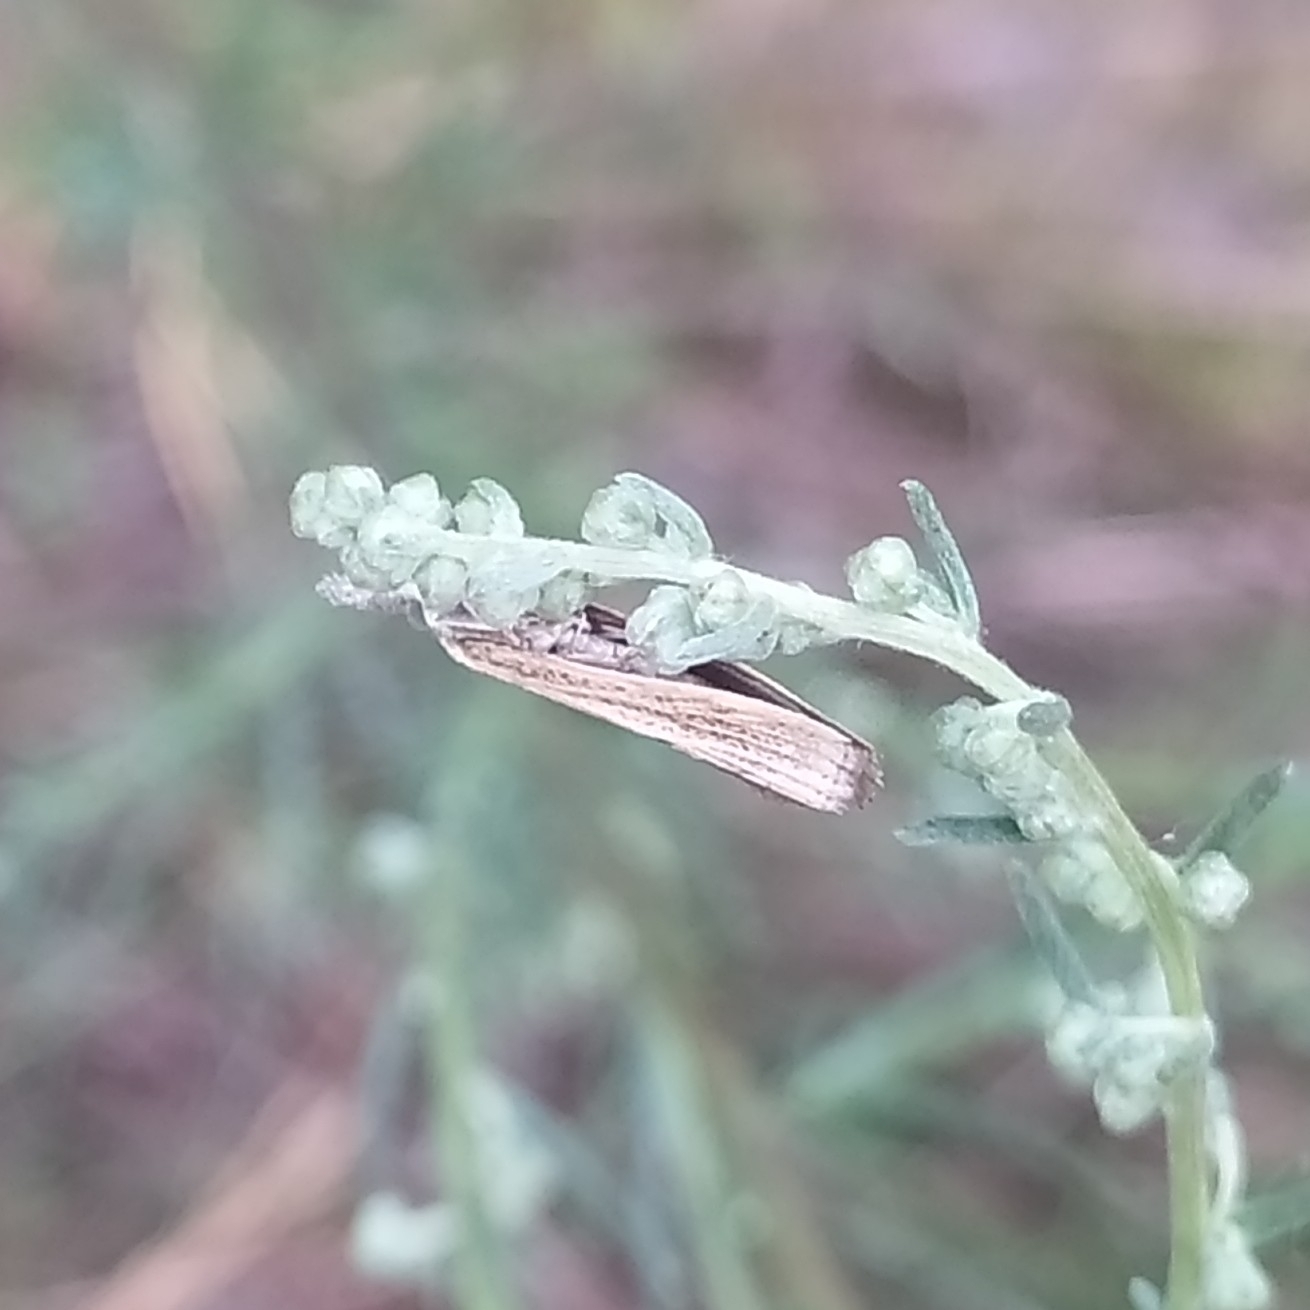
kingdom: Animalia
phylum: Arthropoda
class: Insecta
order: Lepidoptera
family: Crambidae
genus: Agriphila
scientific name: Agriphila tristellus
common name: Common grass-veneer
